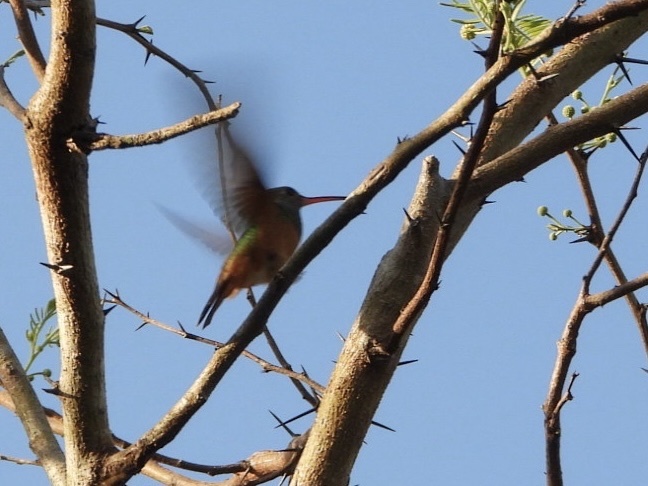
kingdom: Animalia
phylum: Chordata
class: Aves
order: Apodiformes
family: Trochilidae
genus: Amazilia
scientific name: Amazilia yucatanensis
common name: Buff-bellied hummingbird
